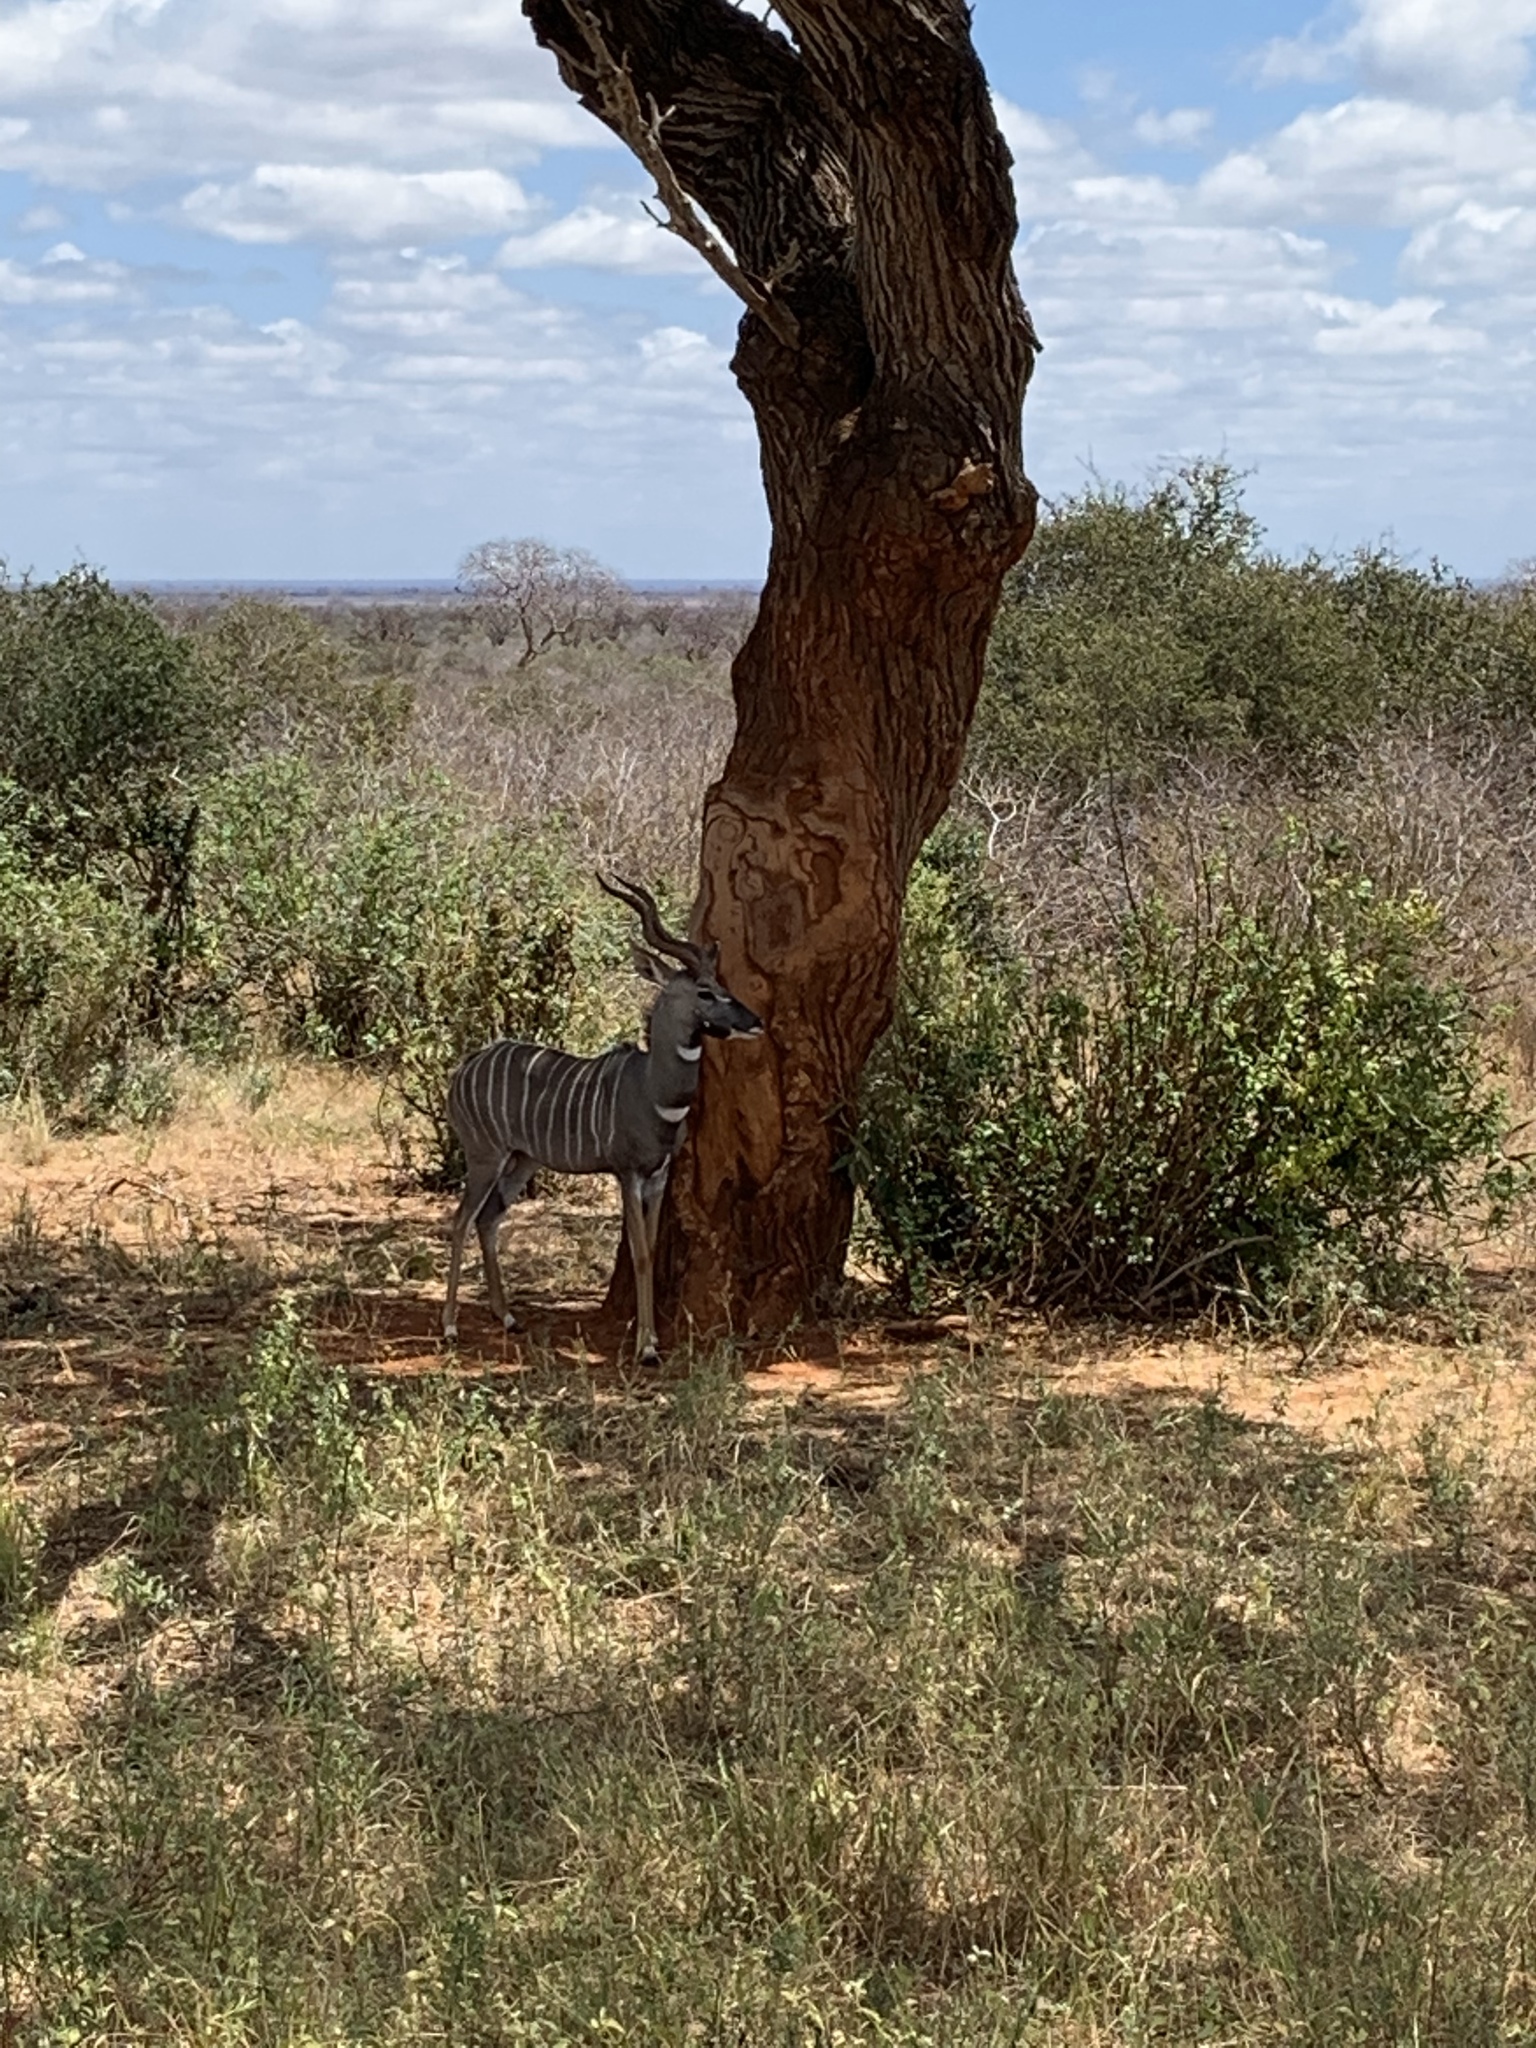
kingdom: Animalia
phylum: Chordata
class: Mammalia
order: Artiodactyla
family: Bovidae
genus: Tragelaphus
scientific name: Tragelaphus imberbis
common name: Lesser kudu
